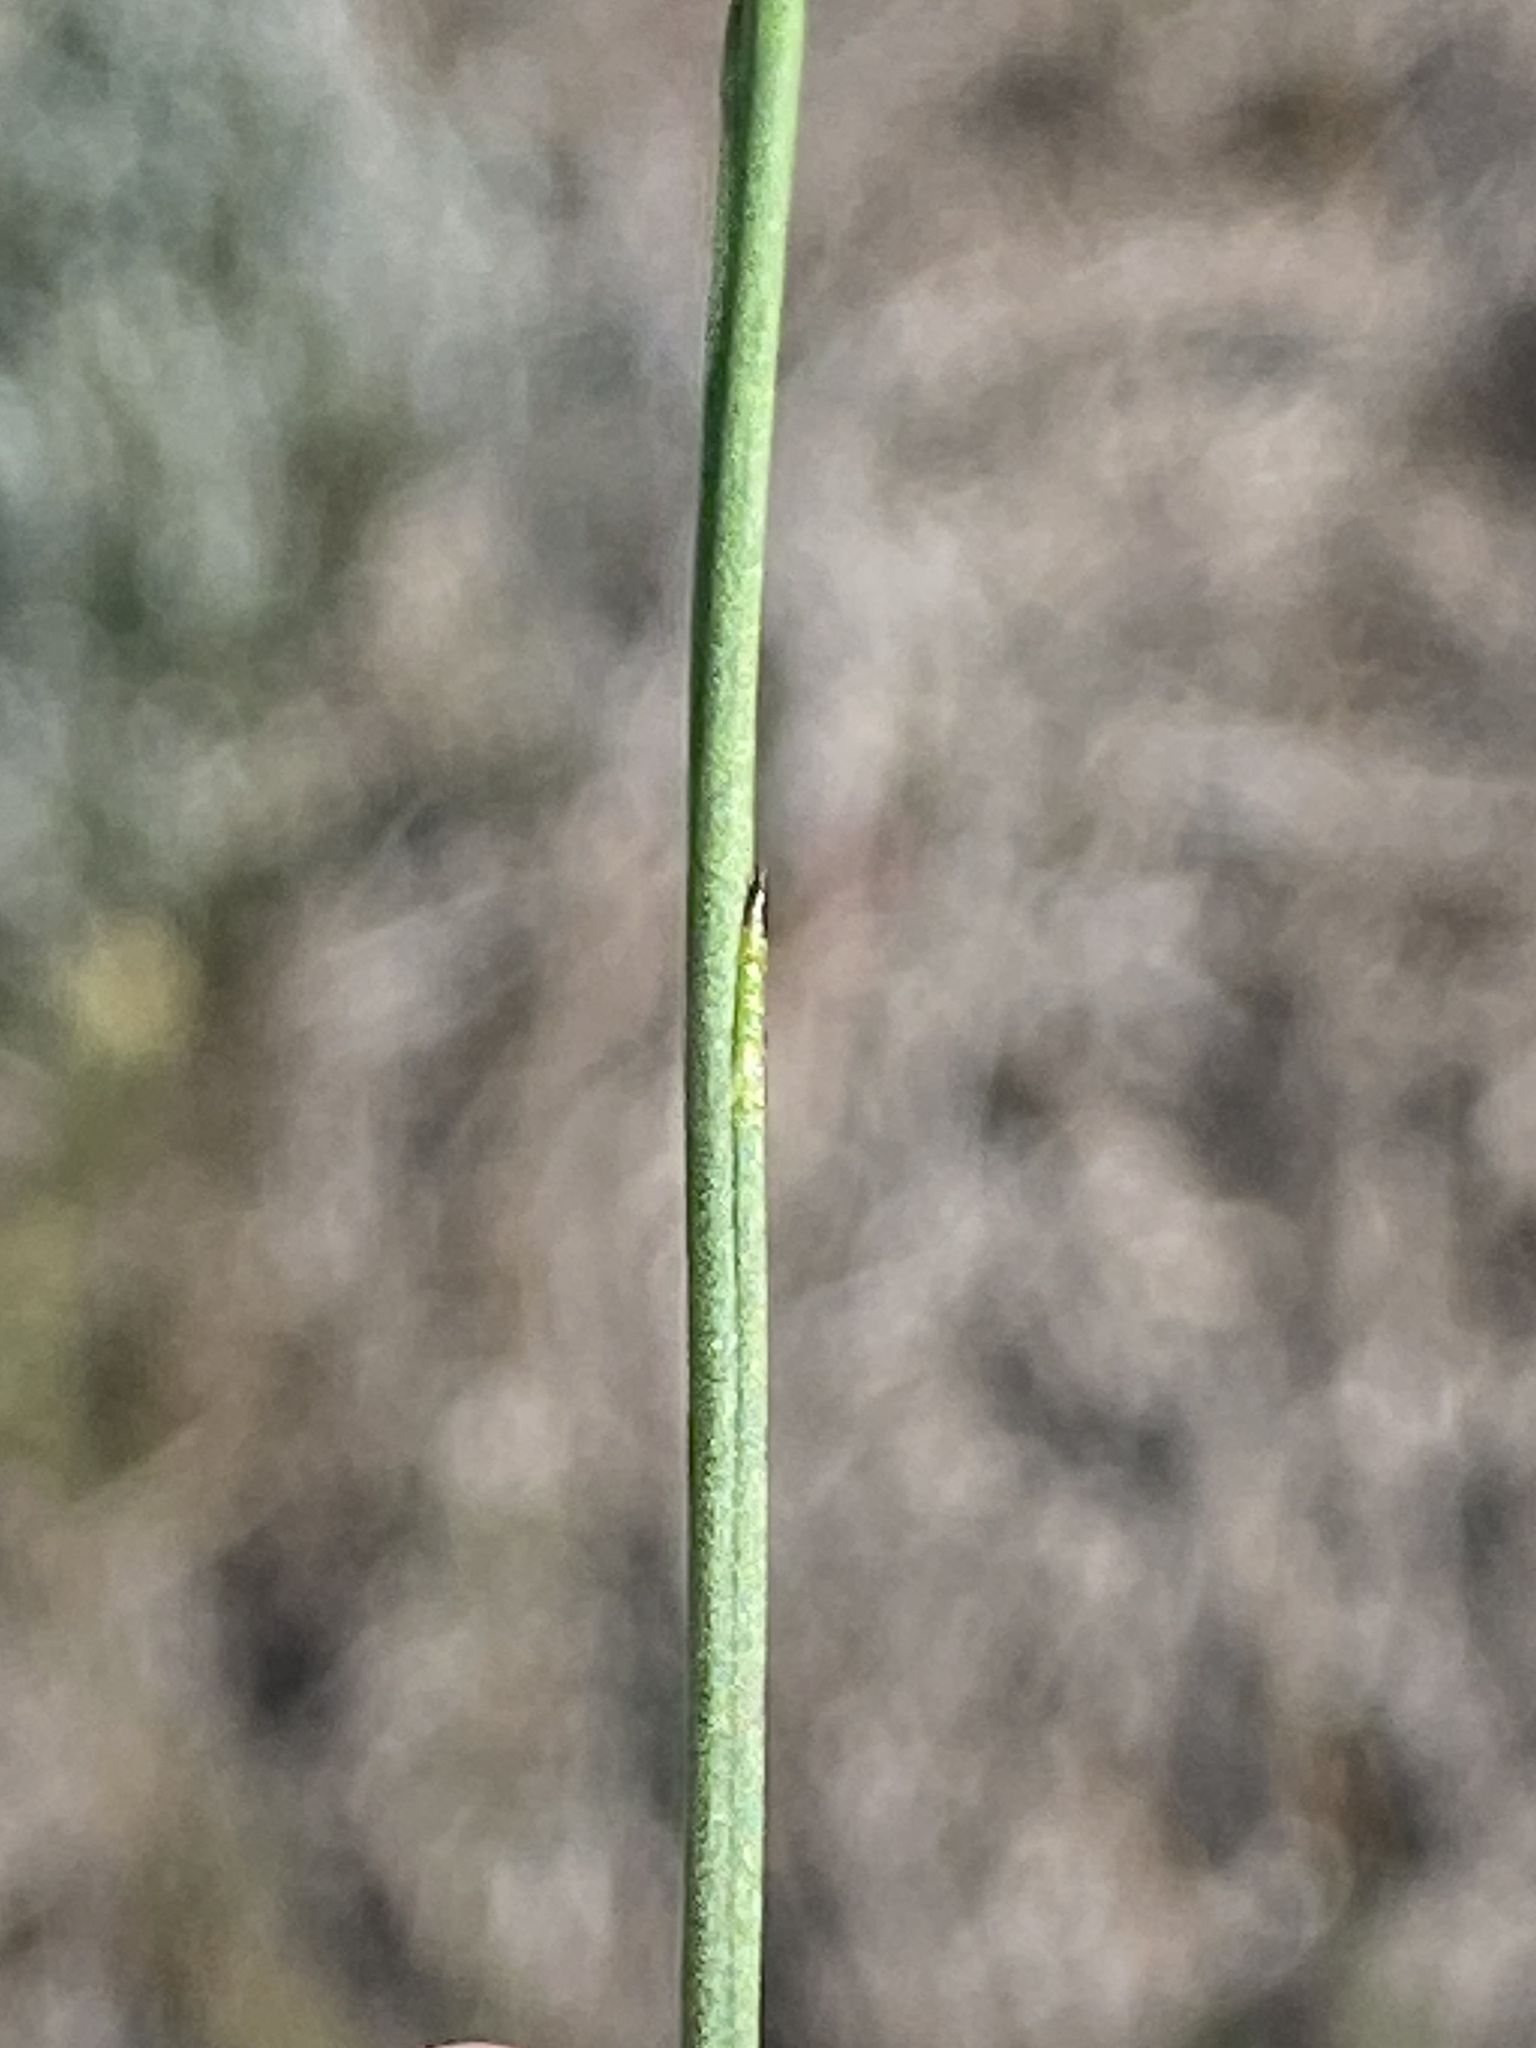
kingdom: Plantae
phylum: Tracheophyta
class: Magnoliopsida
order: Asterales
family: Campanulaceae
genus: Lobelia
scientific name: Lobelia capillifolia
